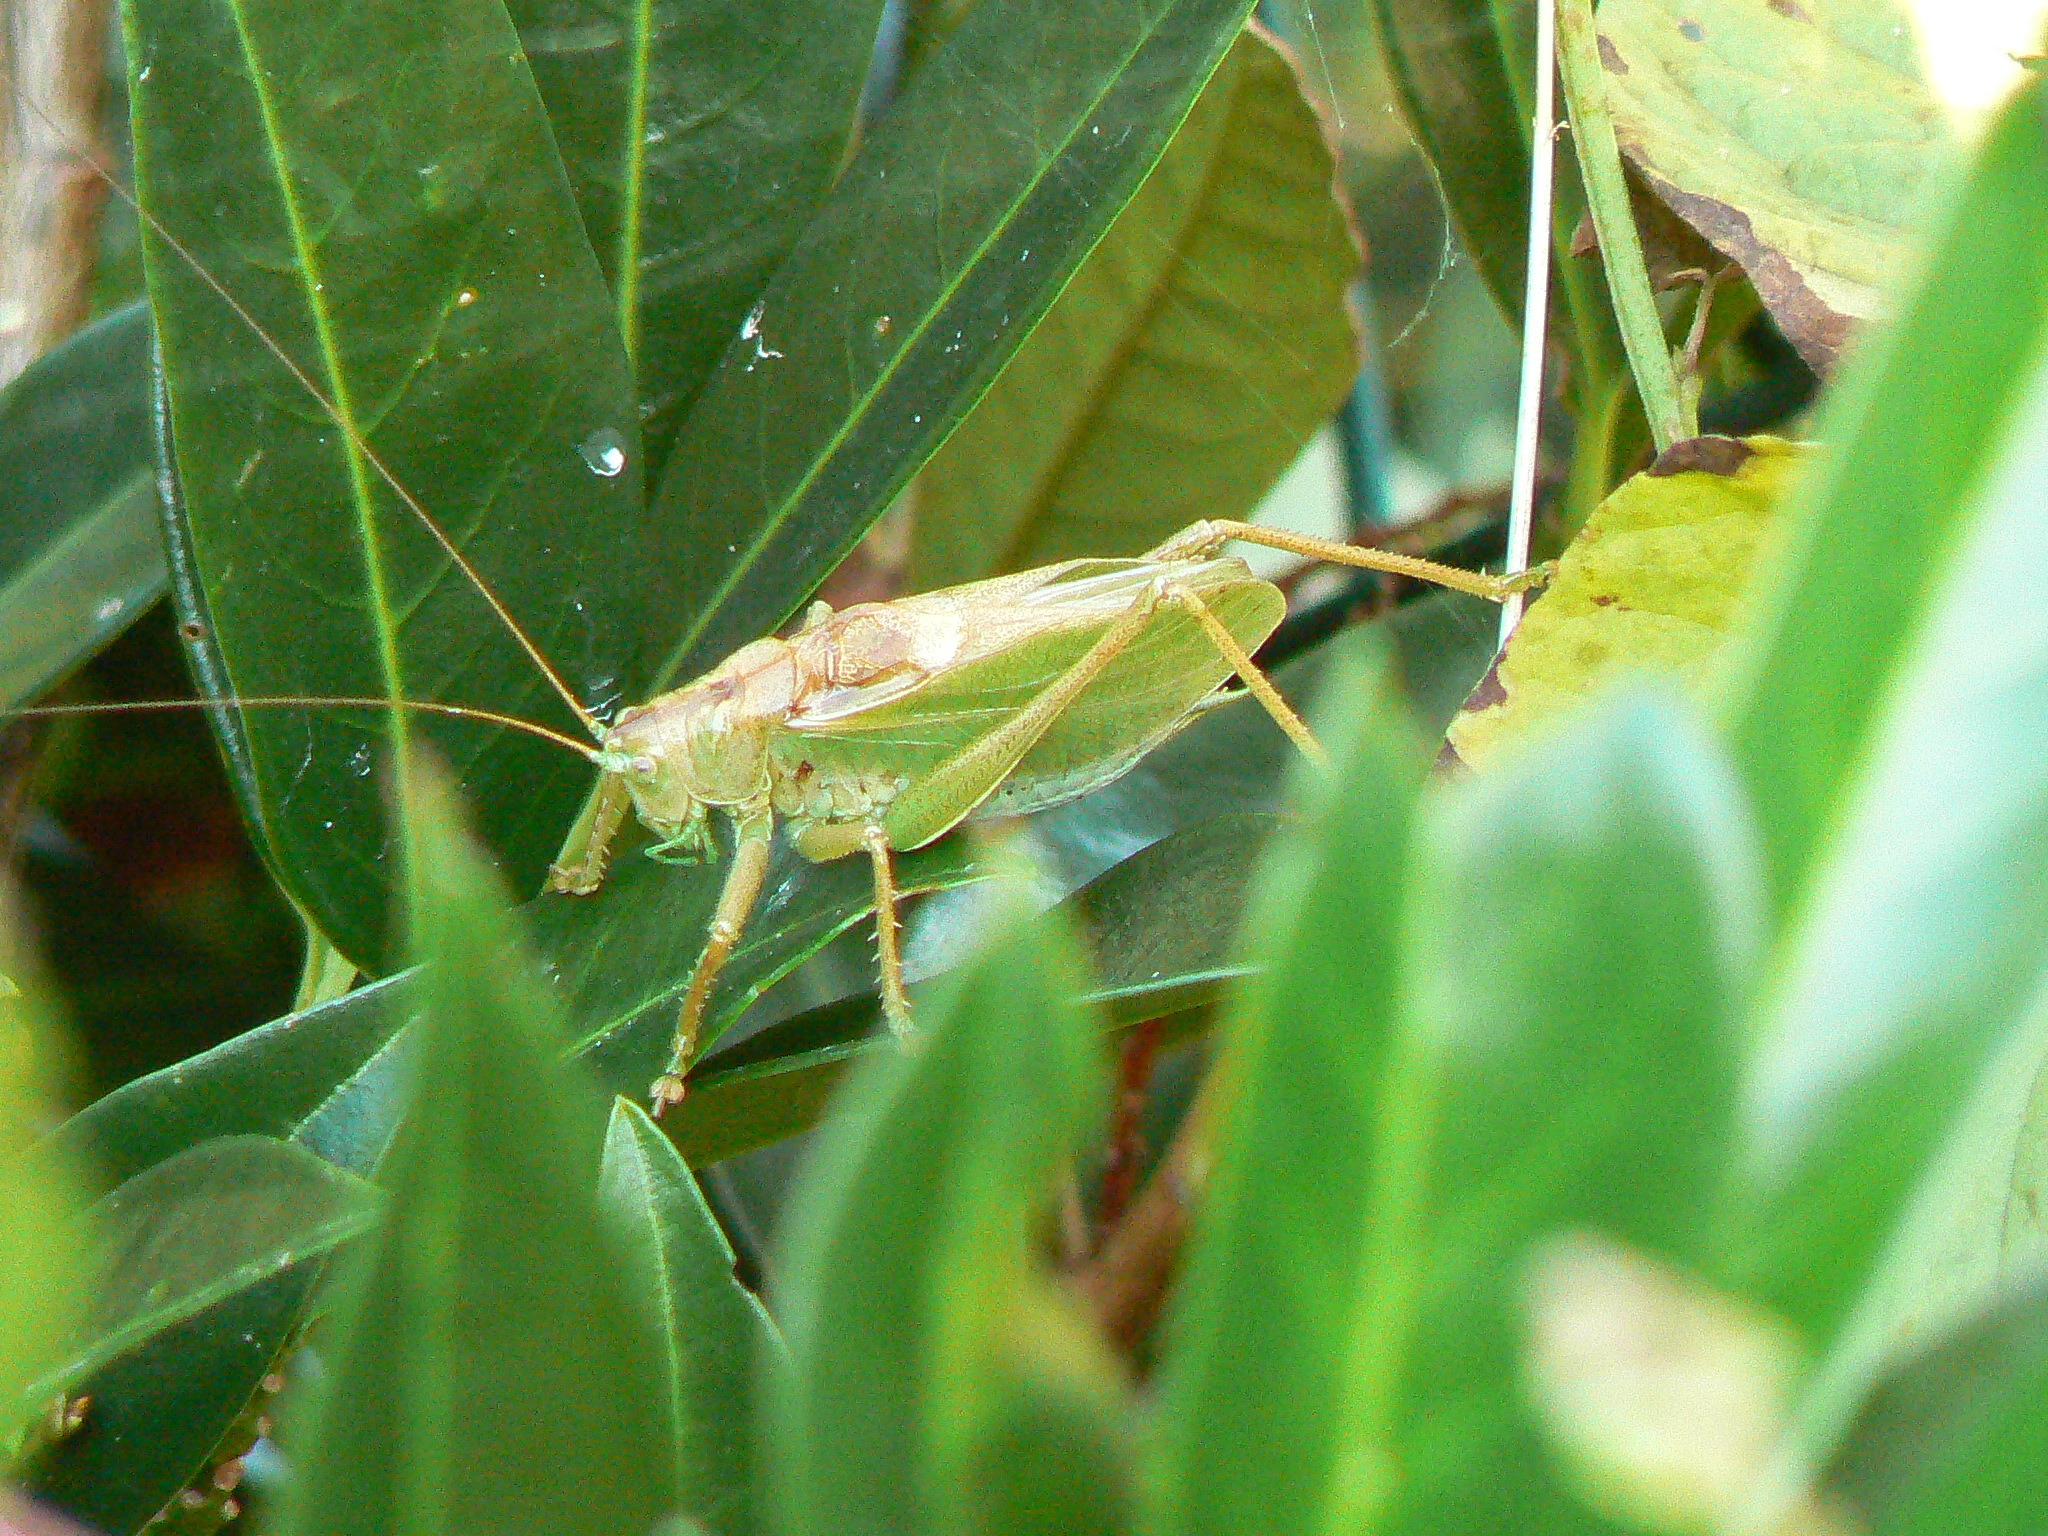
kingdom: Animalia
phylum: Arthropoda
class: Insecta
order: Orthoptera
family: Tettigoniidae
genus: Tettigonia
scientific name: Tettigonia cantans
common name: Upland green bush-cricket
